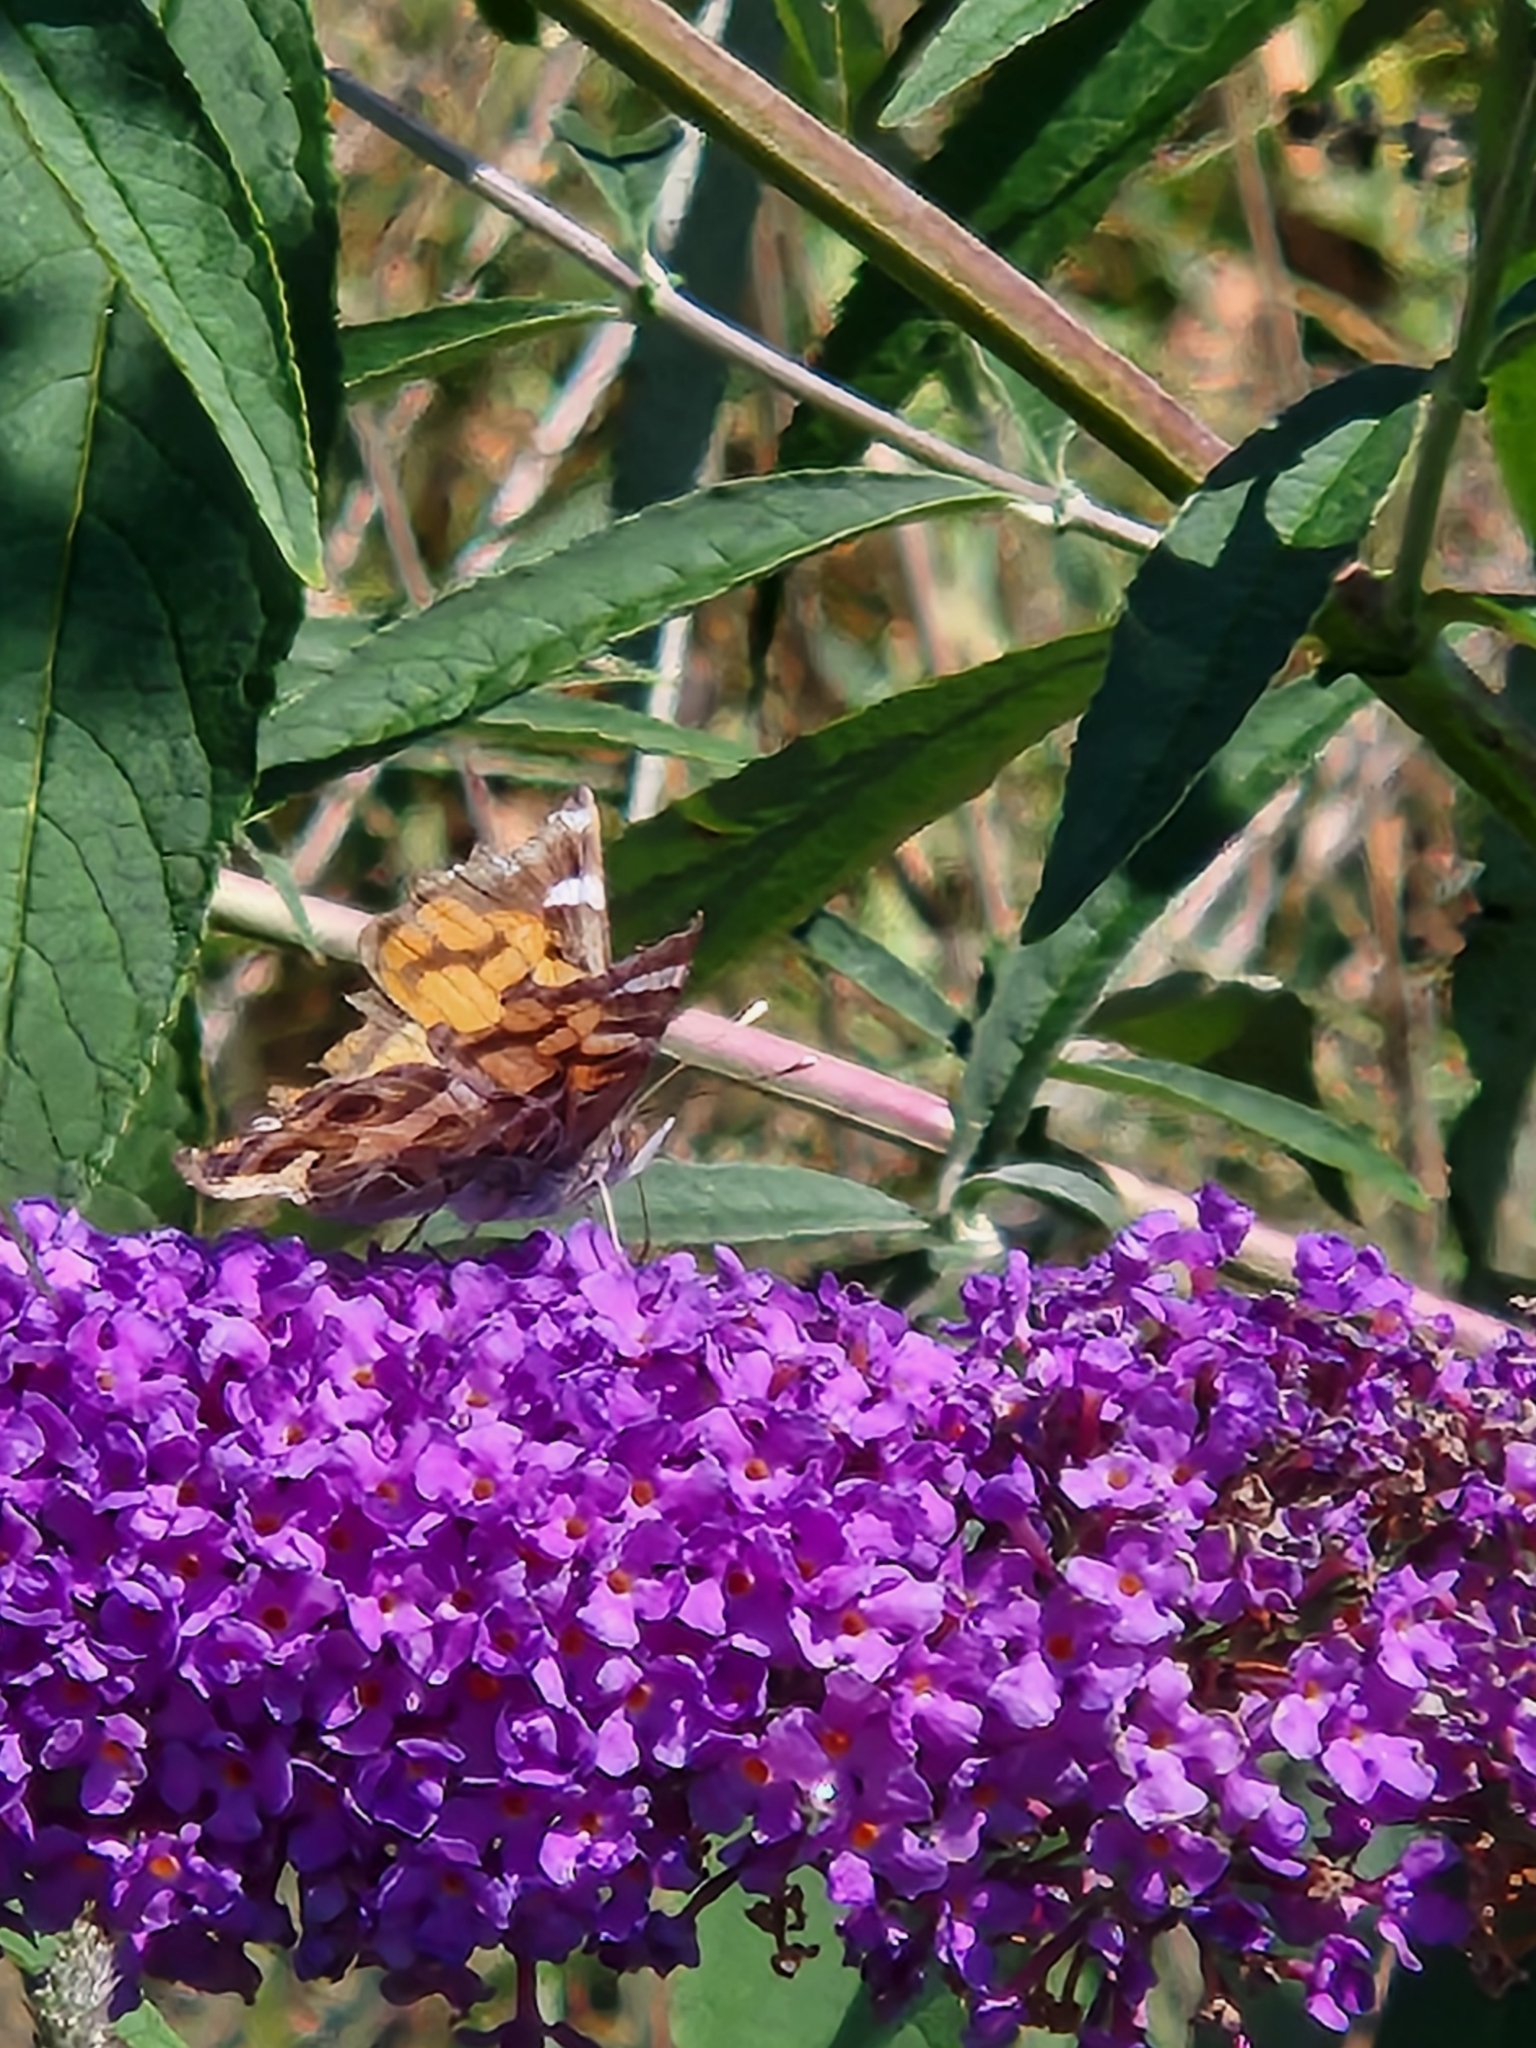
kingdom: Animalia
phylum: Arthropoda
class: Insecta
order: Lepidoptera
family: Nymphalidae
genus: Vanessa
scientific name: Vanessa virginiensis
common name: American lady
